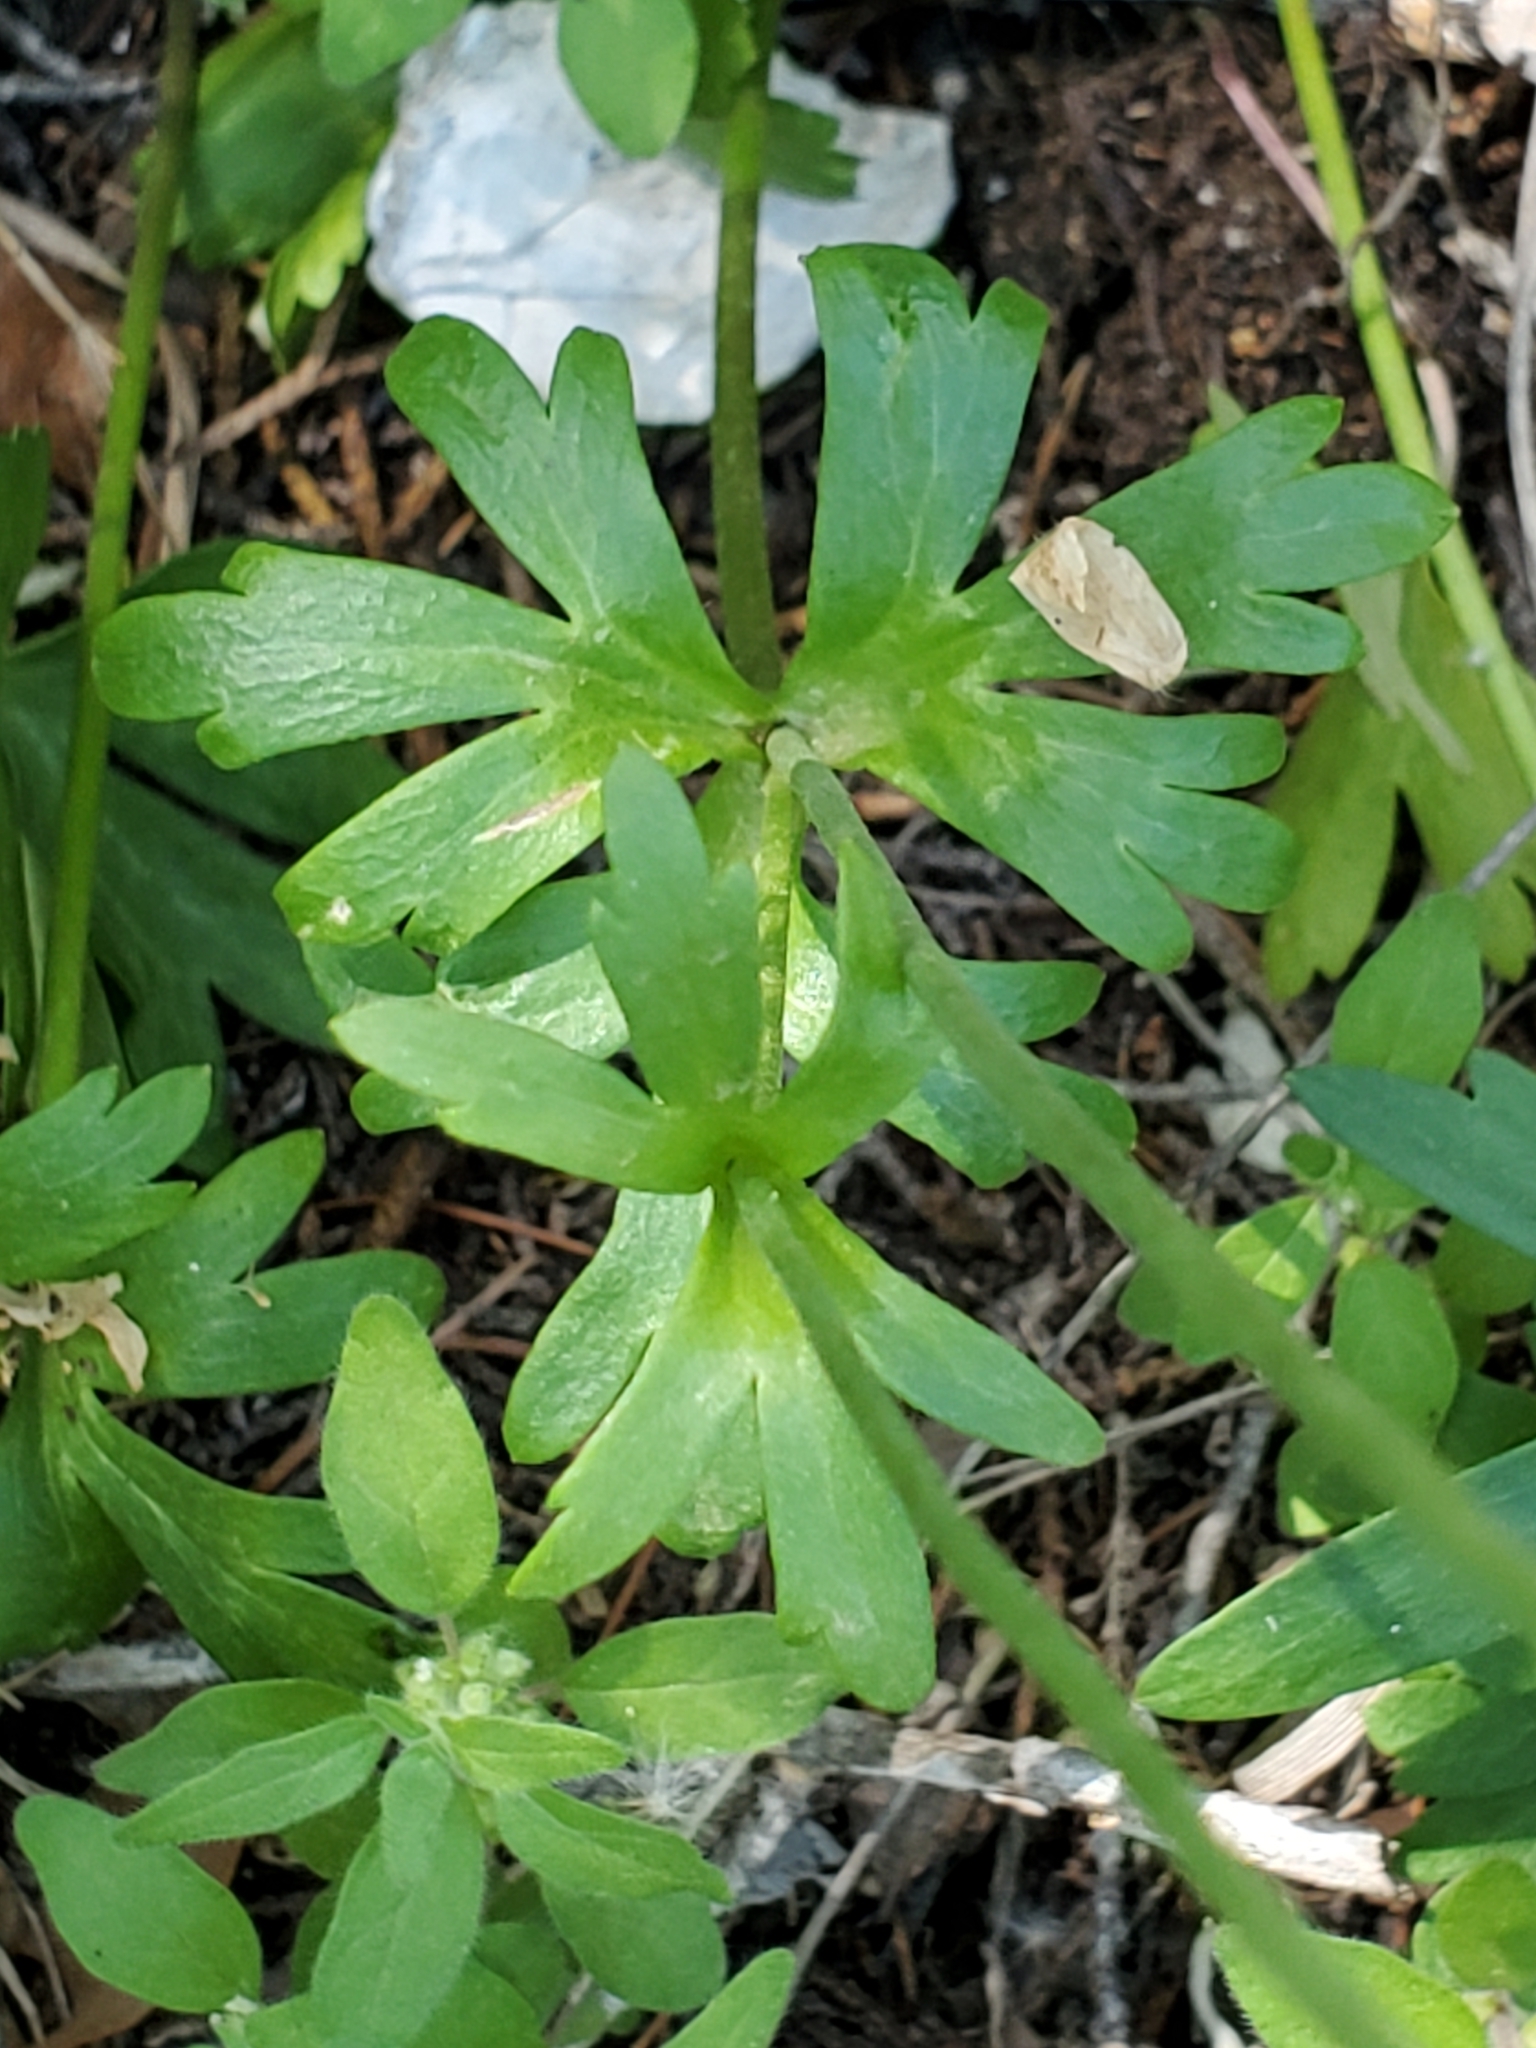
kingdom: Plantae
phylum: Tracheophyta
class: Magnoliopsida
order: Ranunculales
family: Ranunculaceae
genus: Anemone
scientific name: Anemone edwardsiana
